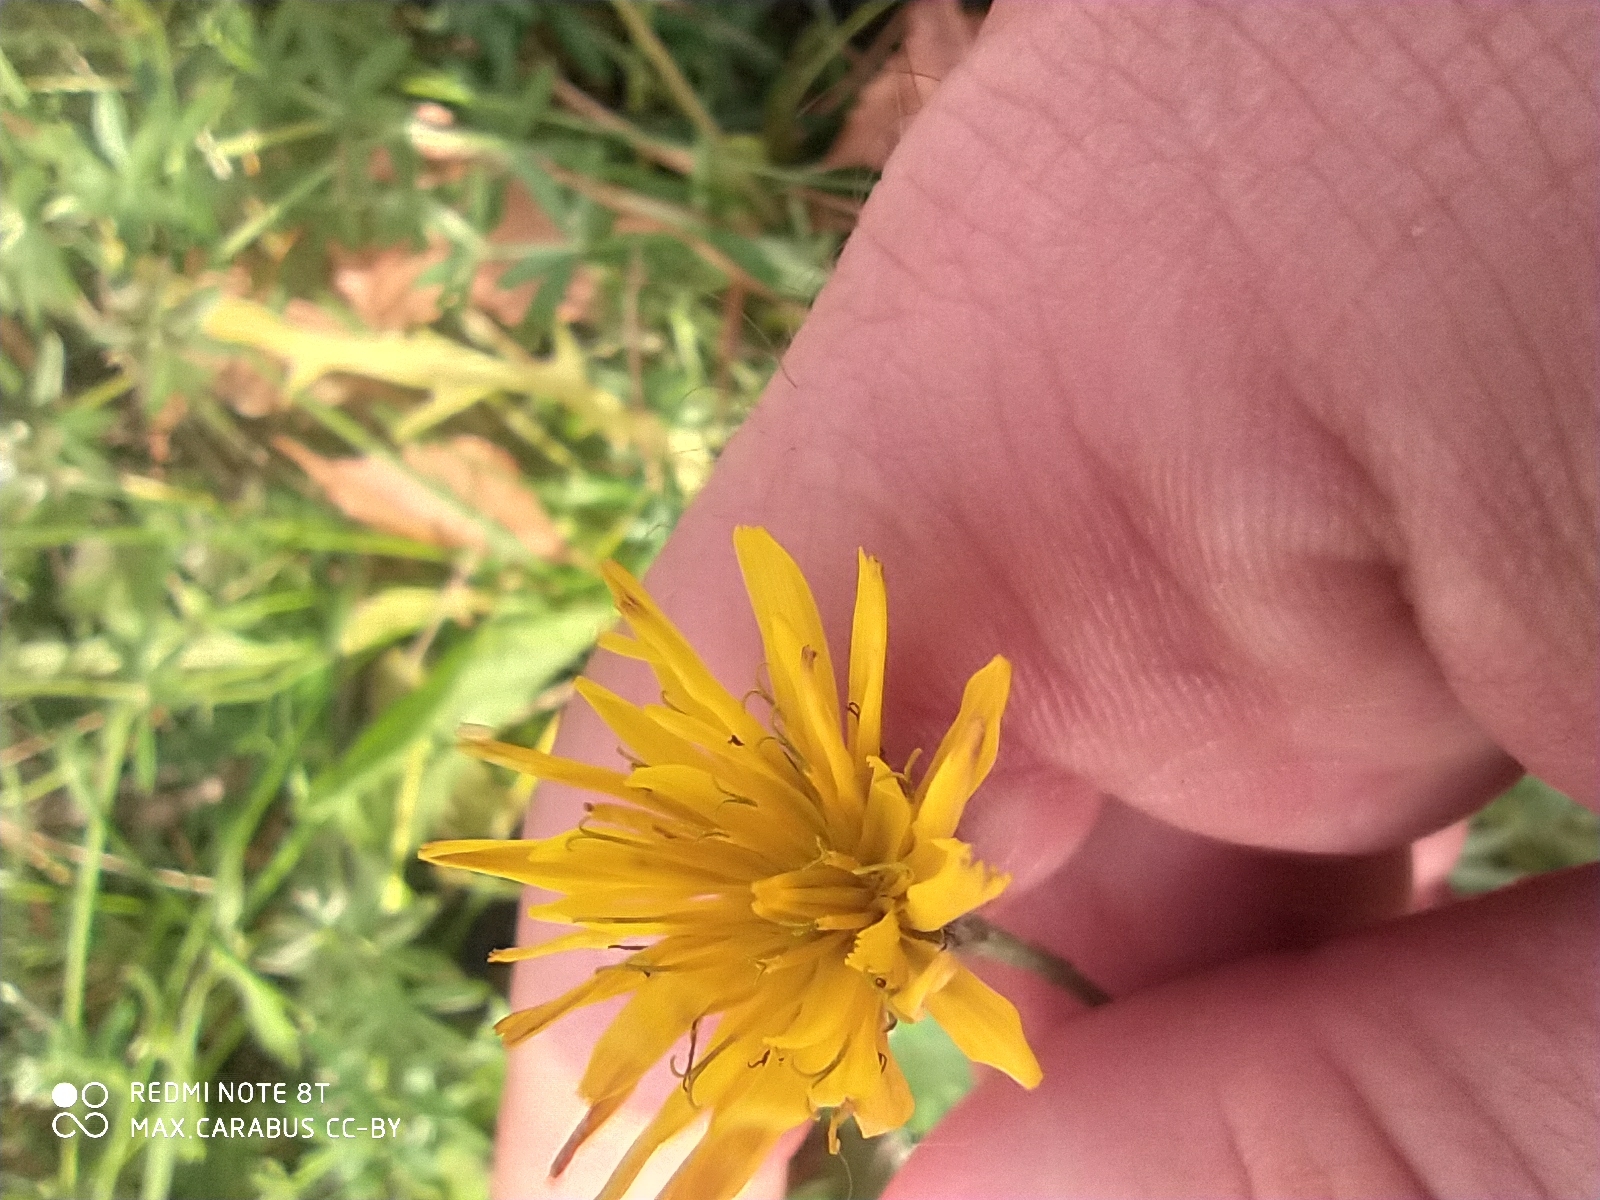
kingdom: Plantae
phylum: Tracheophyta
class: Magnoliopsida
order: Asterales
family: Asteraceae
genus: Scorzoneroides
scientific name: Scorzoneroides autumnalis
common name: Autumn hawkbit
